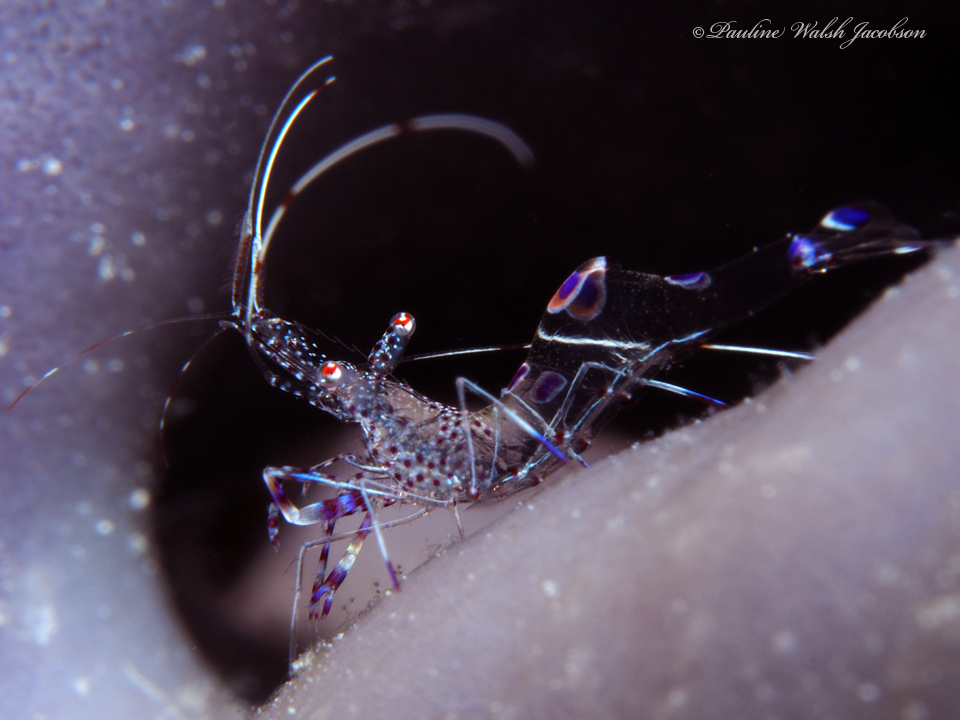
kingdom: Animalia
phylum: Arthropoda
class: Malacostraca
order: Decapoda
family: Palaemonidae
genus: Periclimenes
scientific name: Periclimenes yucatanicus
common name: Spotted cleaning shrimp
